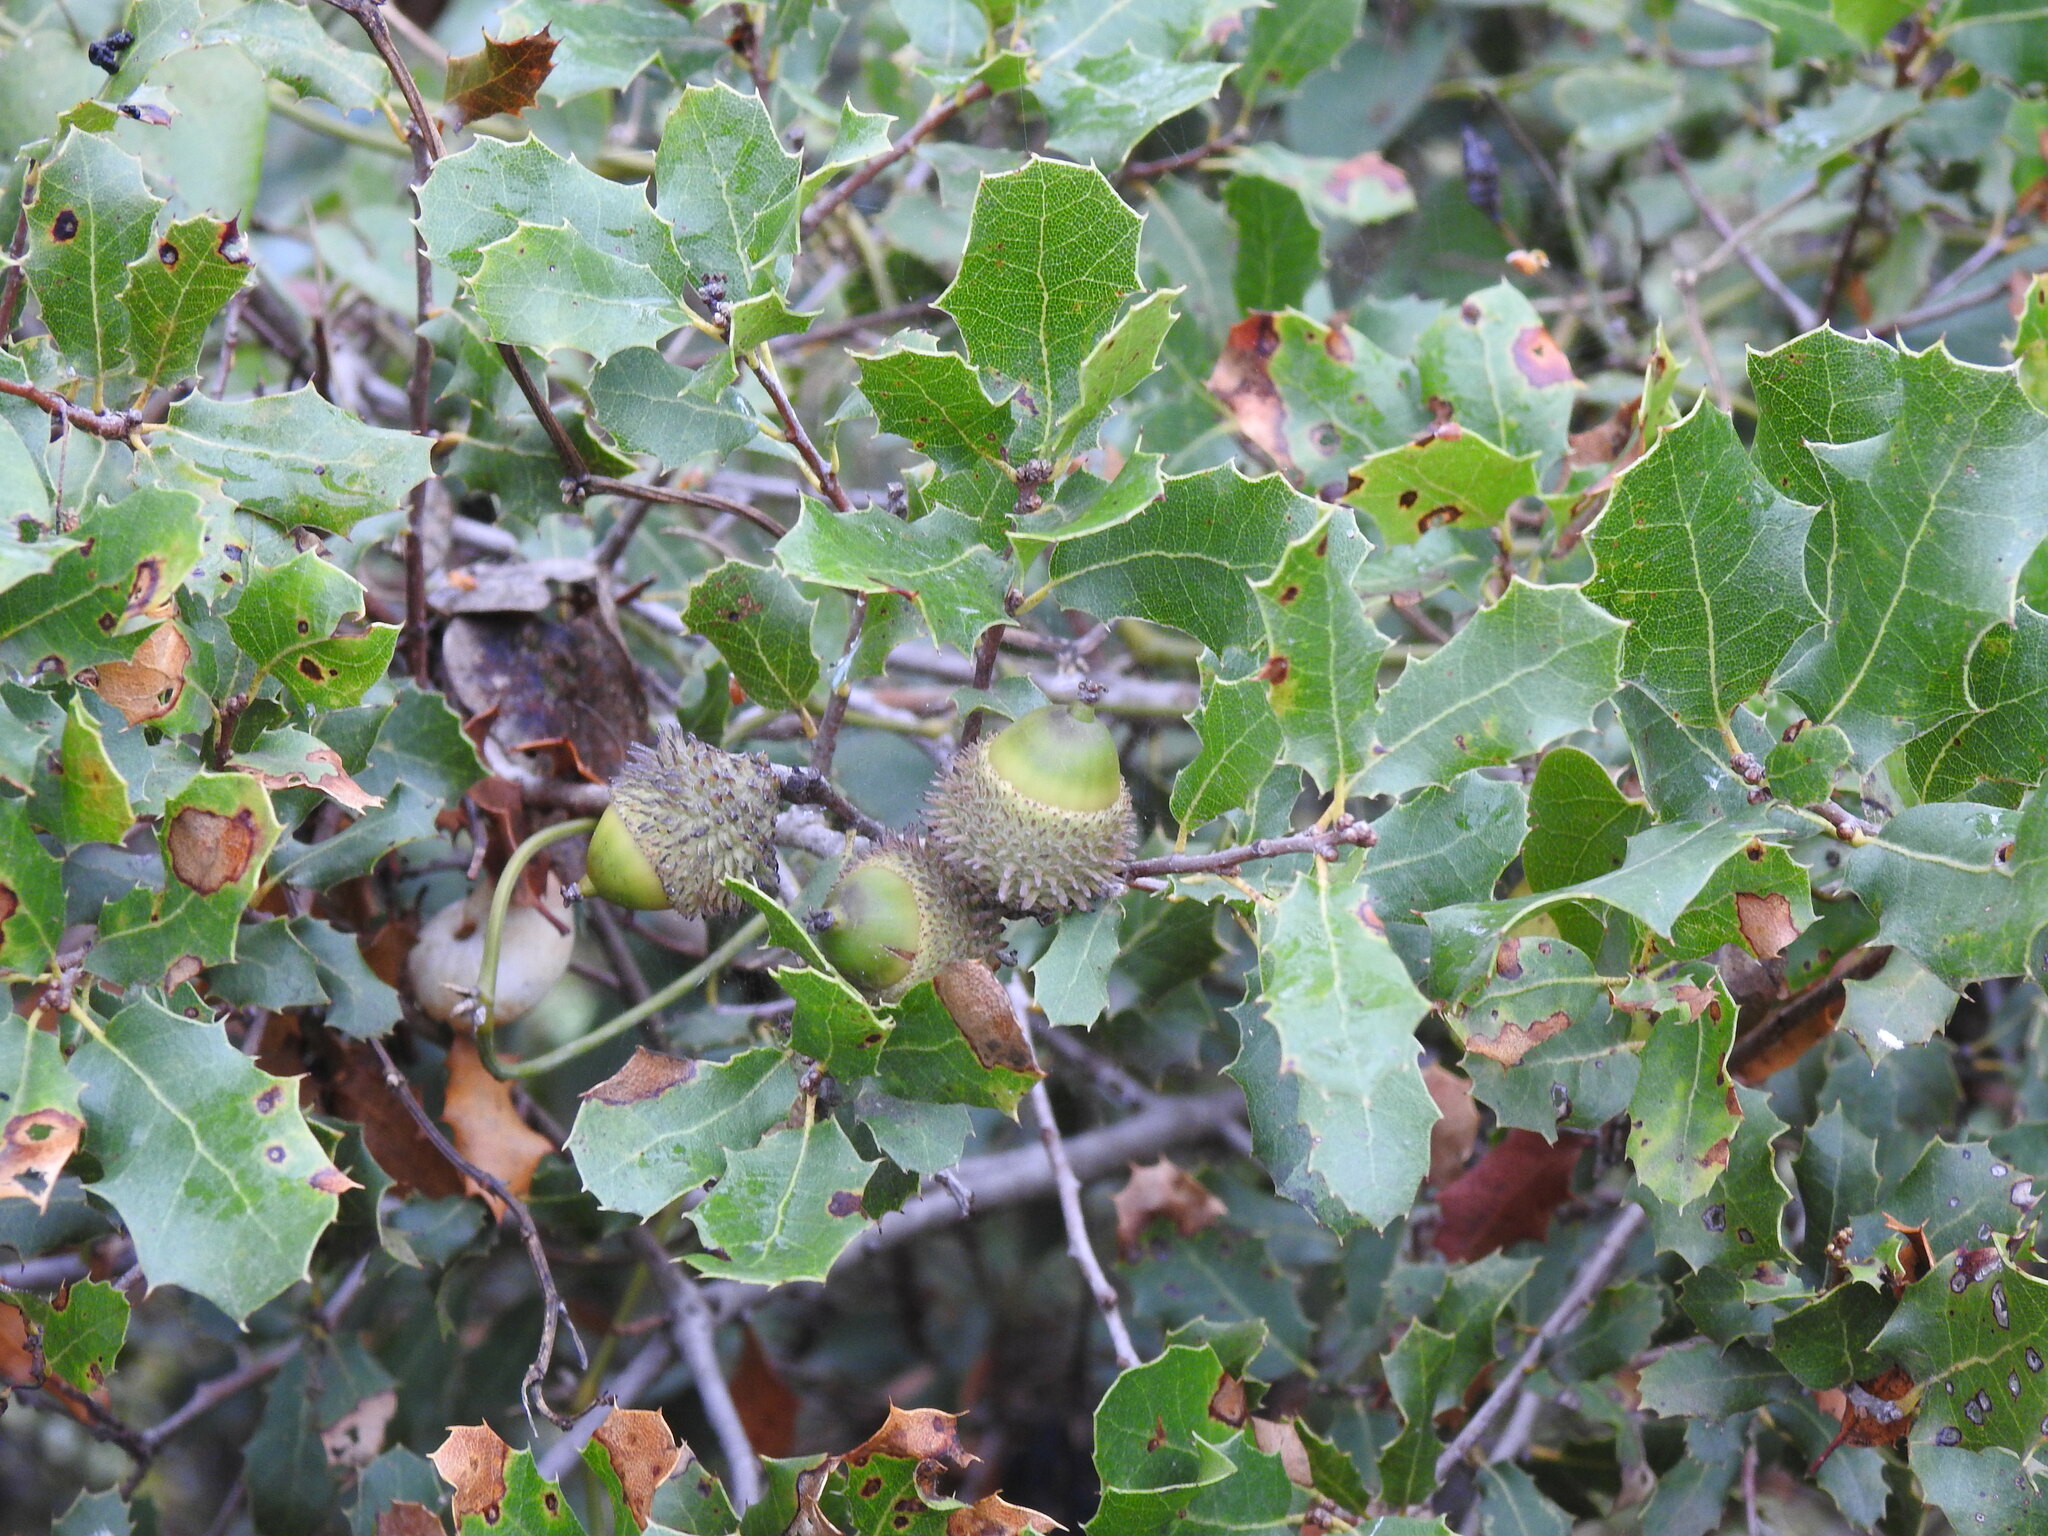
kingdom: Plantae
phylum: Tracheophyta
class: Magnoliopsida
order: Fagales
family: Fagaceae
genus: Quercus
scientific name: Quercus coccifera
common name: Kermes oak
